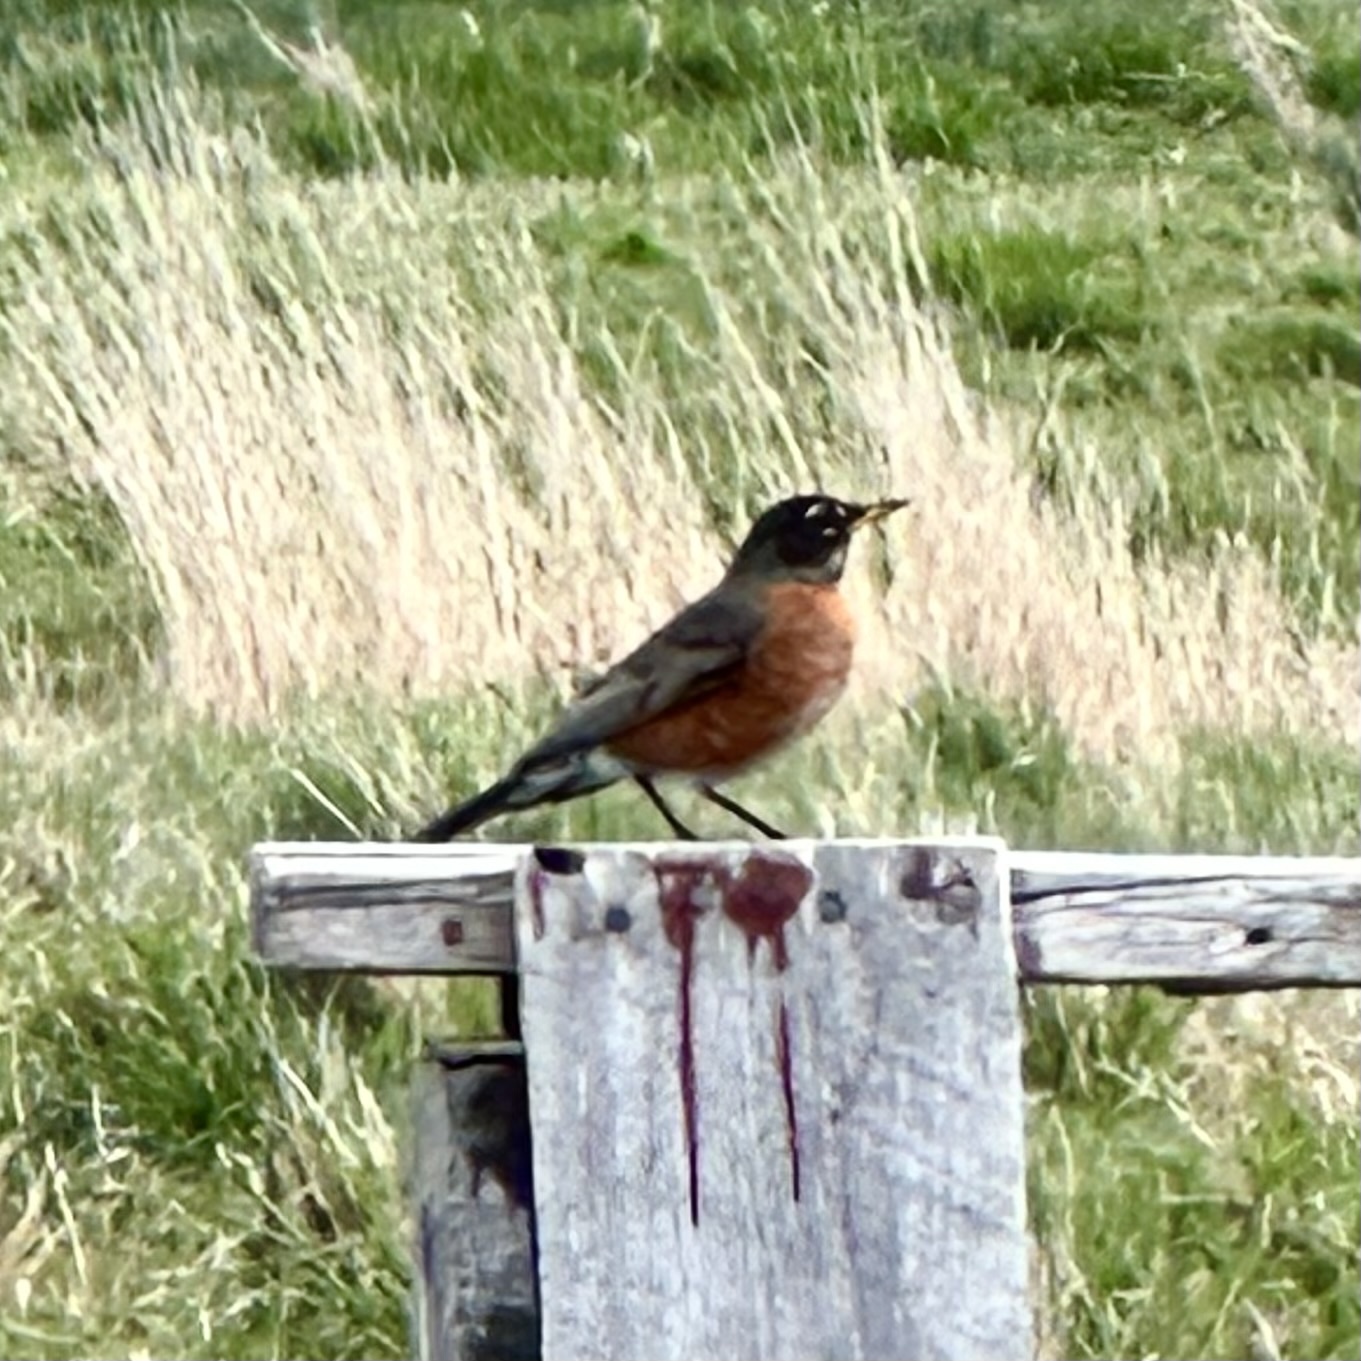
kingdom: Animalia
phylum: Chordata
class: Aves
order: Passeriformes
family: Turdidae
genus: Turdus
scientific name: Turdus migratorius
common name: American robin
